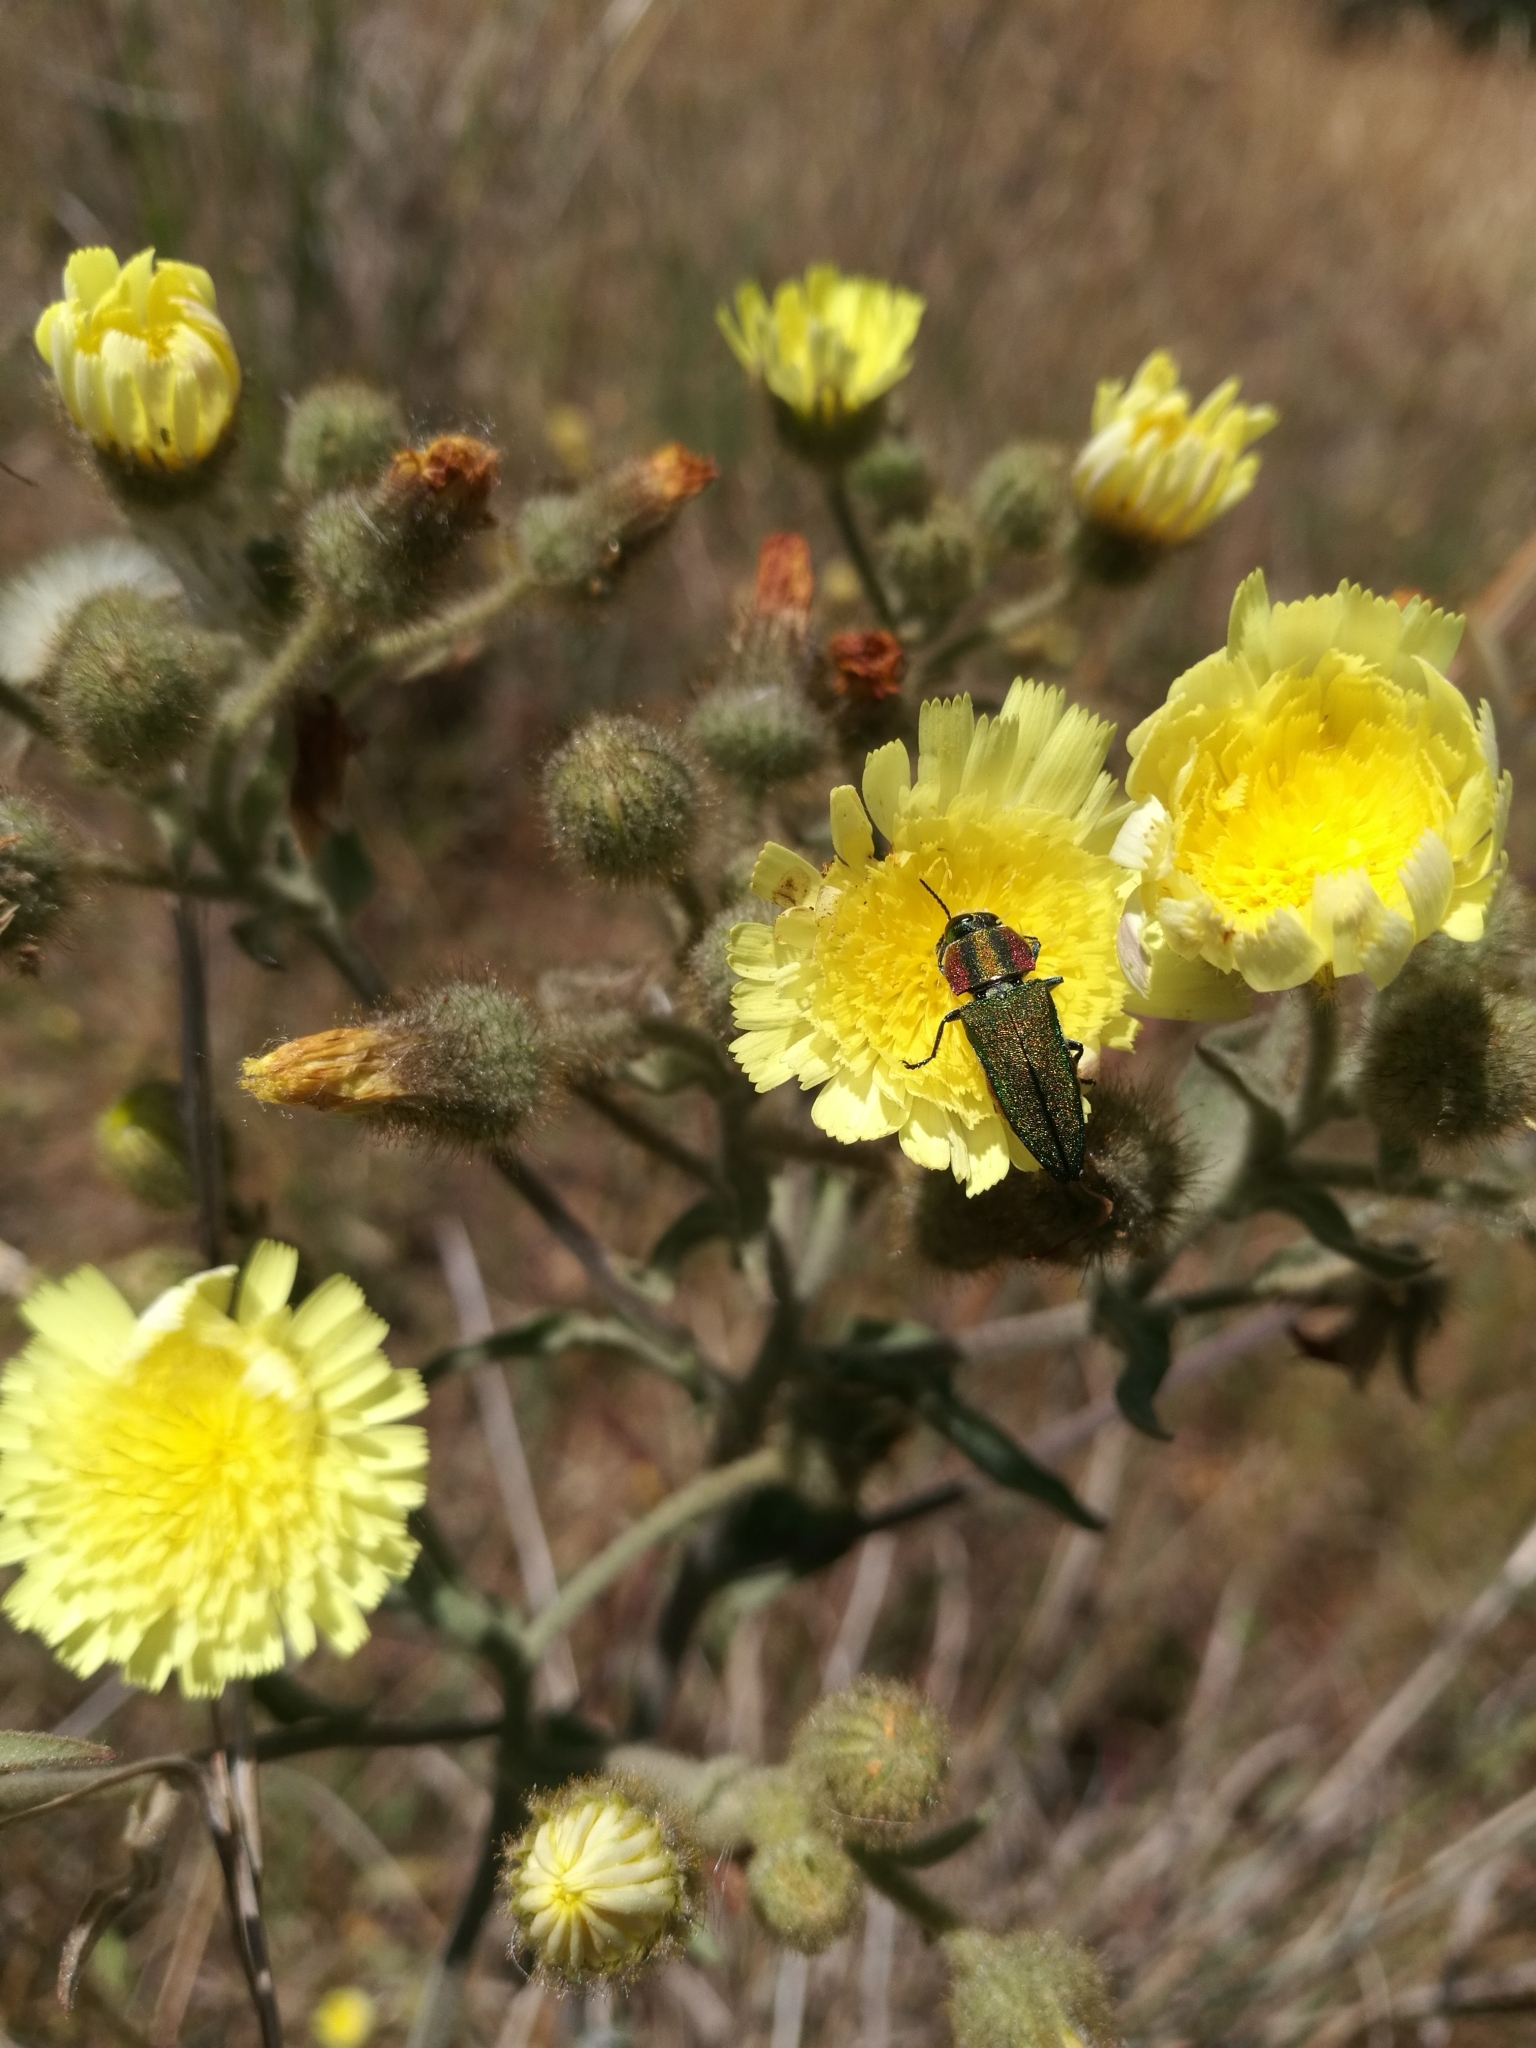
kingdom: Animalia
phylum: Arthropoda
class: Insecta
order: Coleoptera
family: Buprestidae
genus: Anthaxia
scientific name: Anthaxia hungarica
